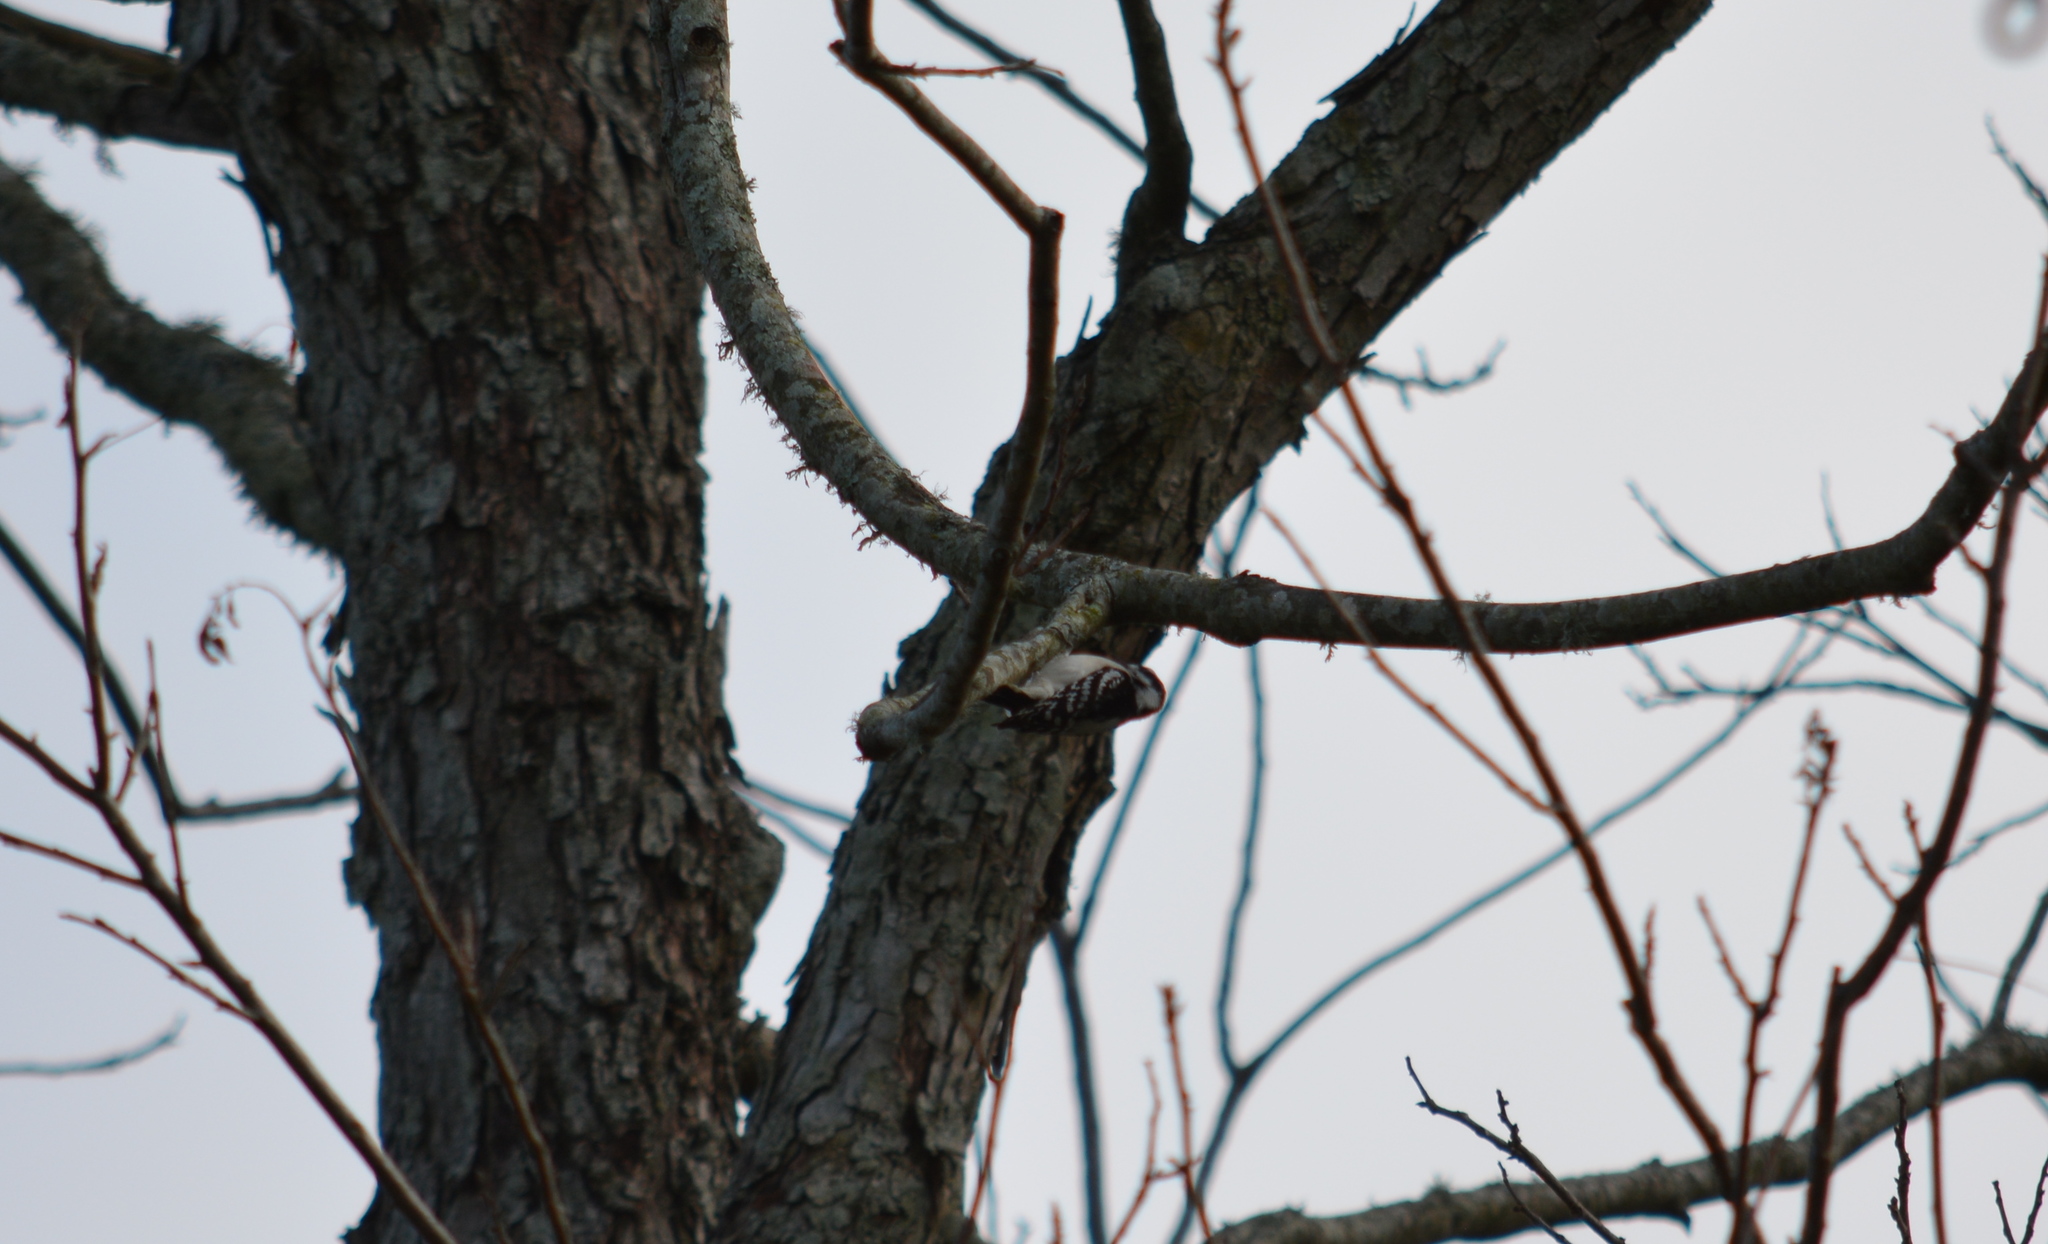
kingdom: Animalia
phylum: Chordata
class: Aves
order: Piciformes
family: Picidae
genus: Dryobates
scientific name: Dryobates pubescens
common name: Downy woodpecker
